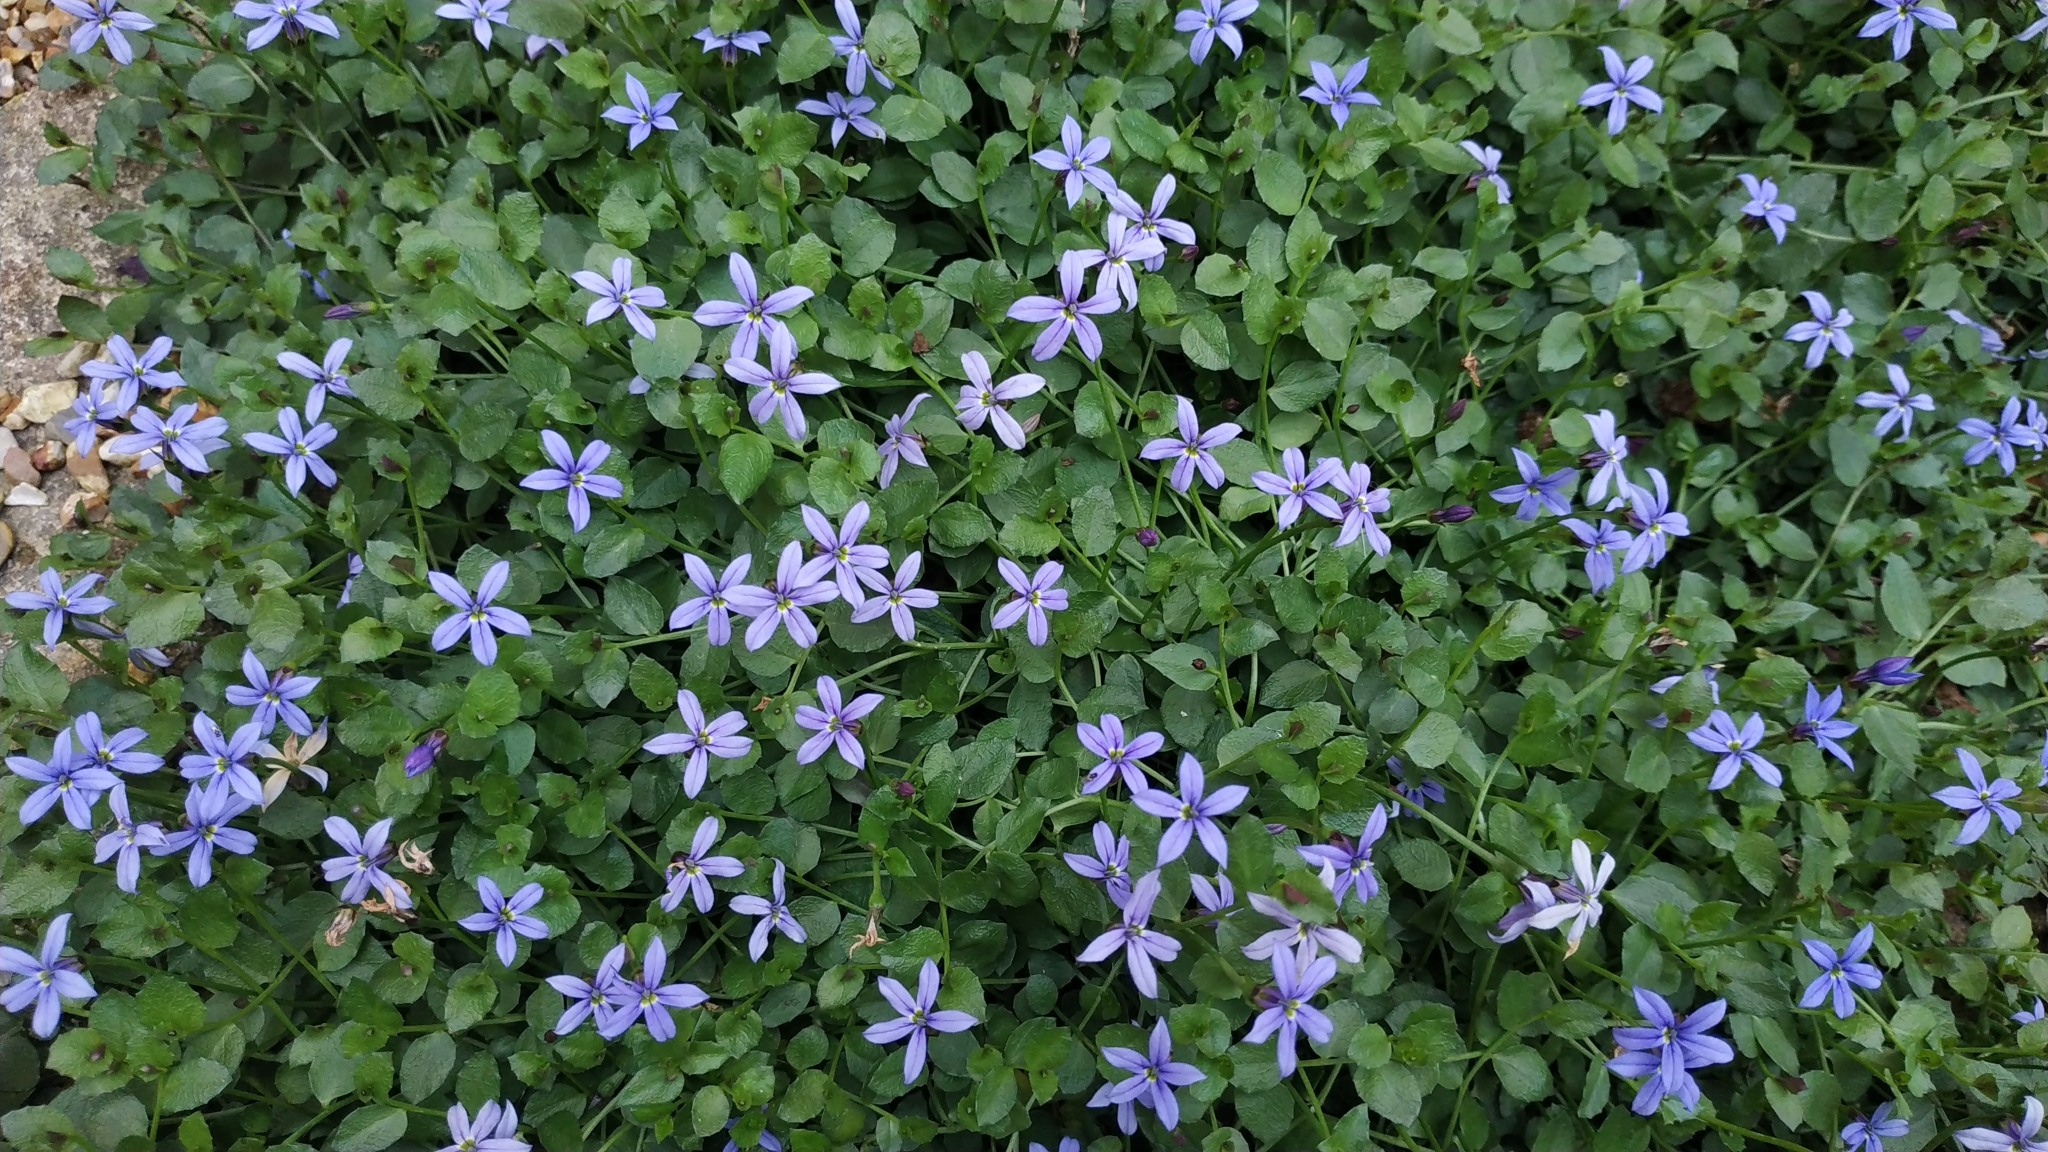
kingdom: Plantae
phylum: Tracheophyta
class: Magnoliopsida
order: Asterales
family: Campanulaceae
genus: Campanula
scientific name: Campanula poscharskyana
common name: Trailing bellflower
